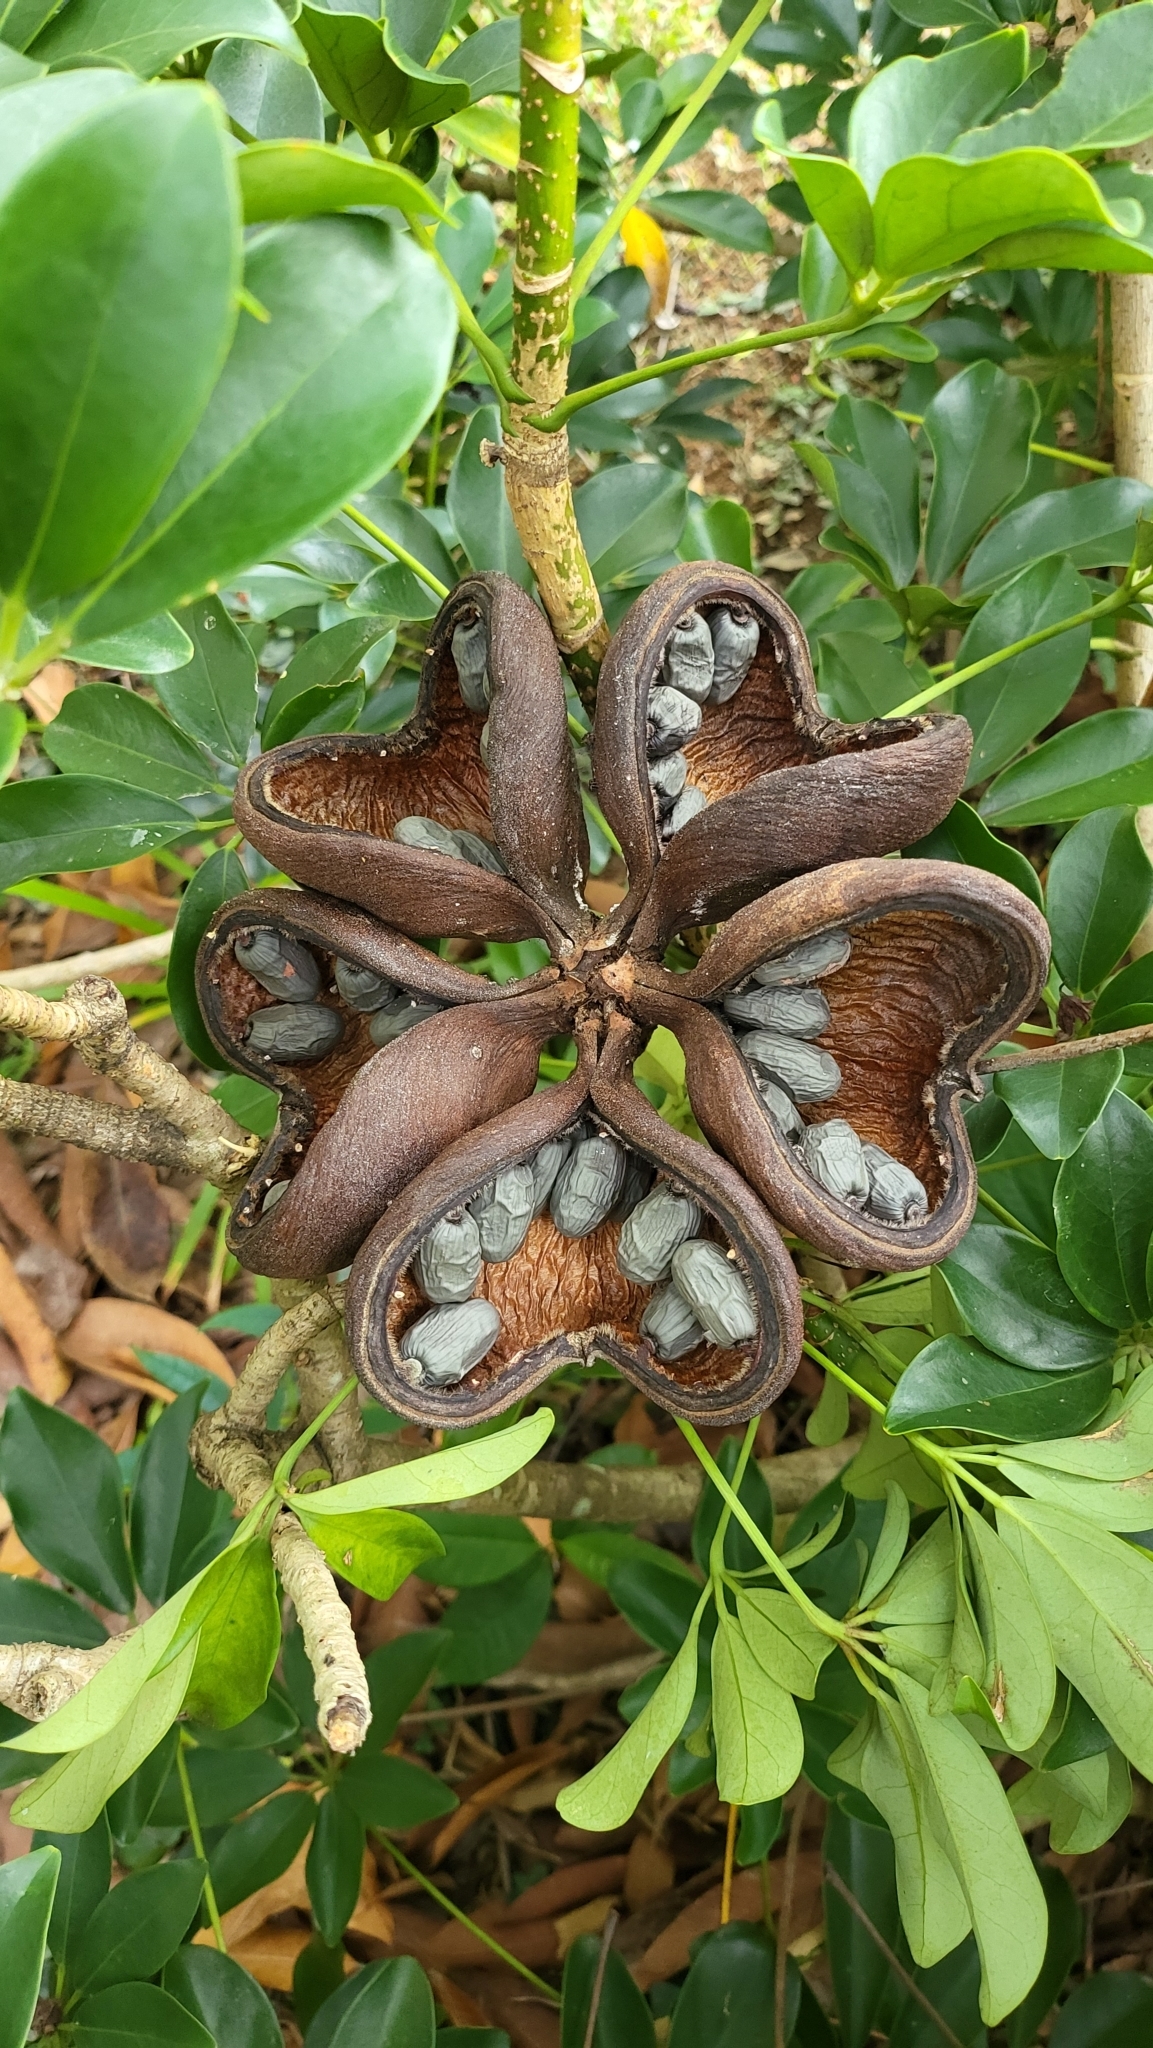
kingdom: Plantae
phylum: Tracheophyta
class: Magnoliopsida
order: Malvales
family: Malvaceae
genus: Sterculia
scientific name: Sterculia foetida
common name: Hazel sterculia
